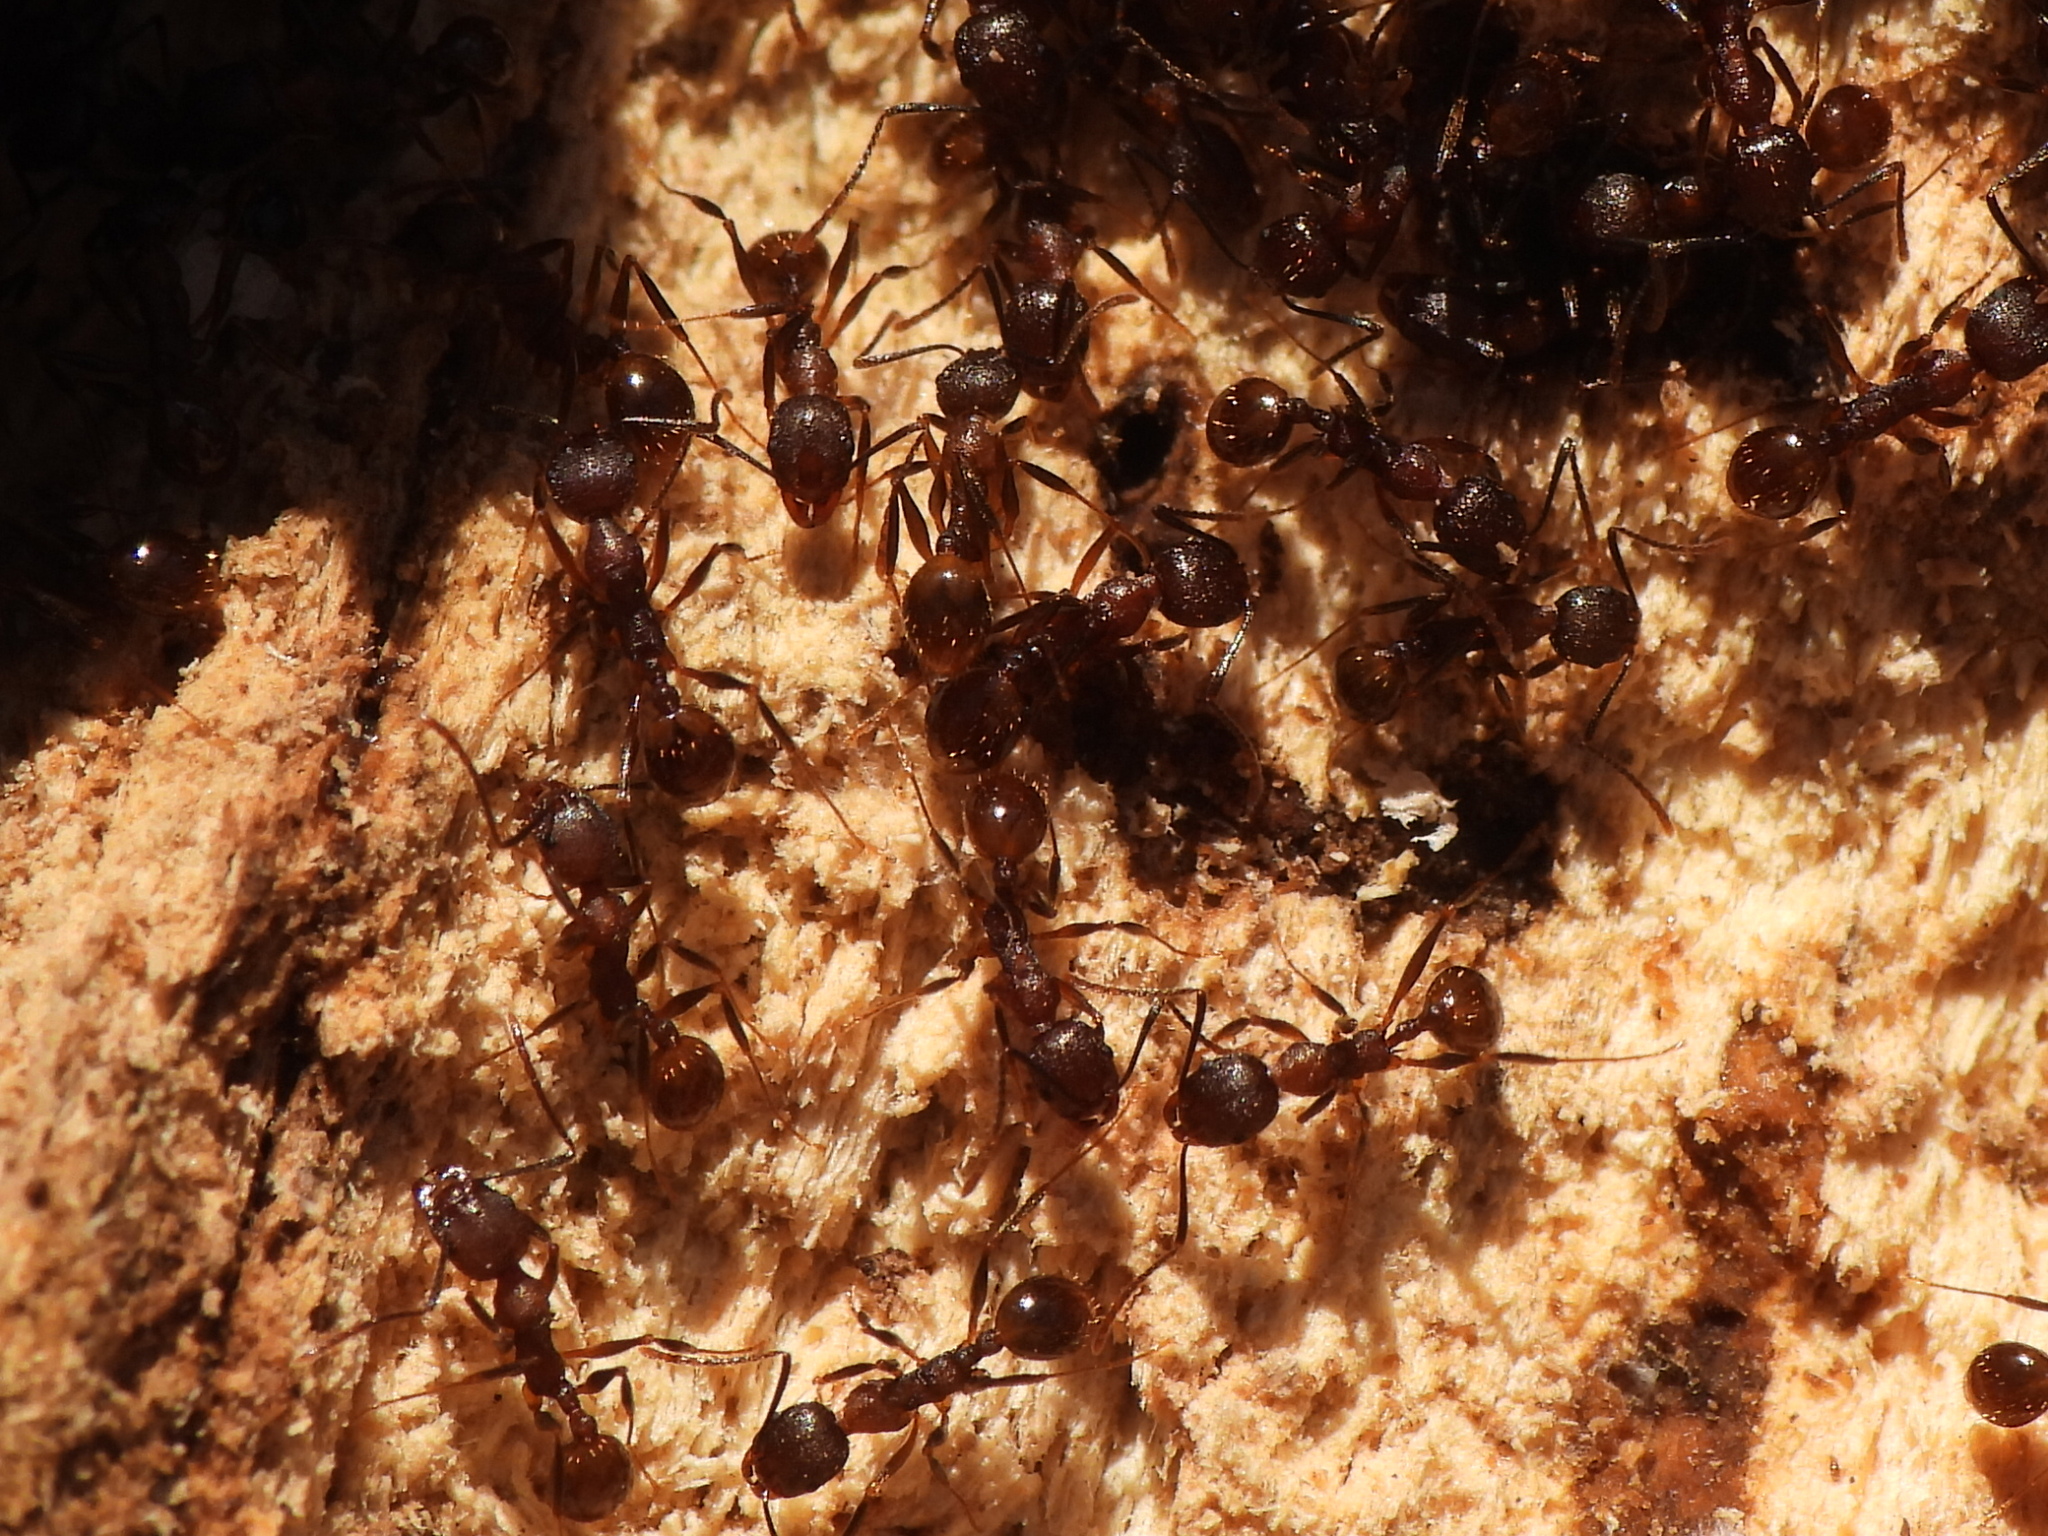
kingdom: Animalia
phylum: Arthropoda
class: Insecta
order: Hymenoptera
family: Formicidae
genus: Aphaenogaster
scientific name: Aphaenogaster fulva
